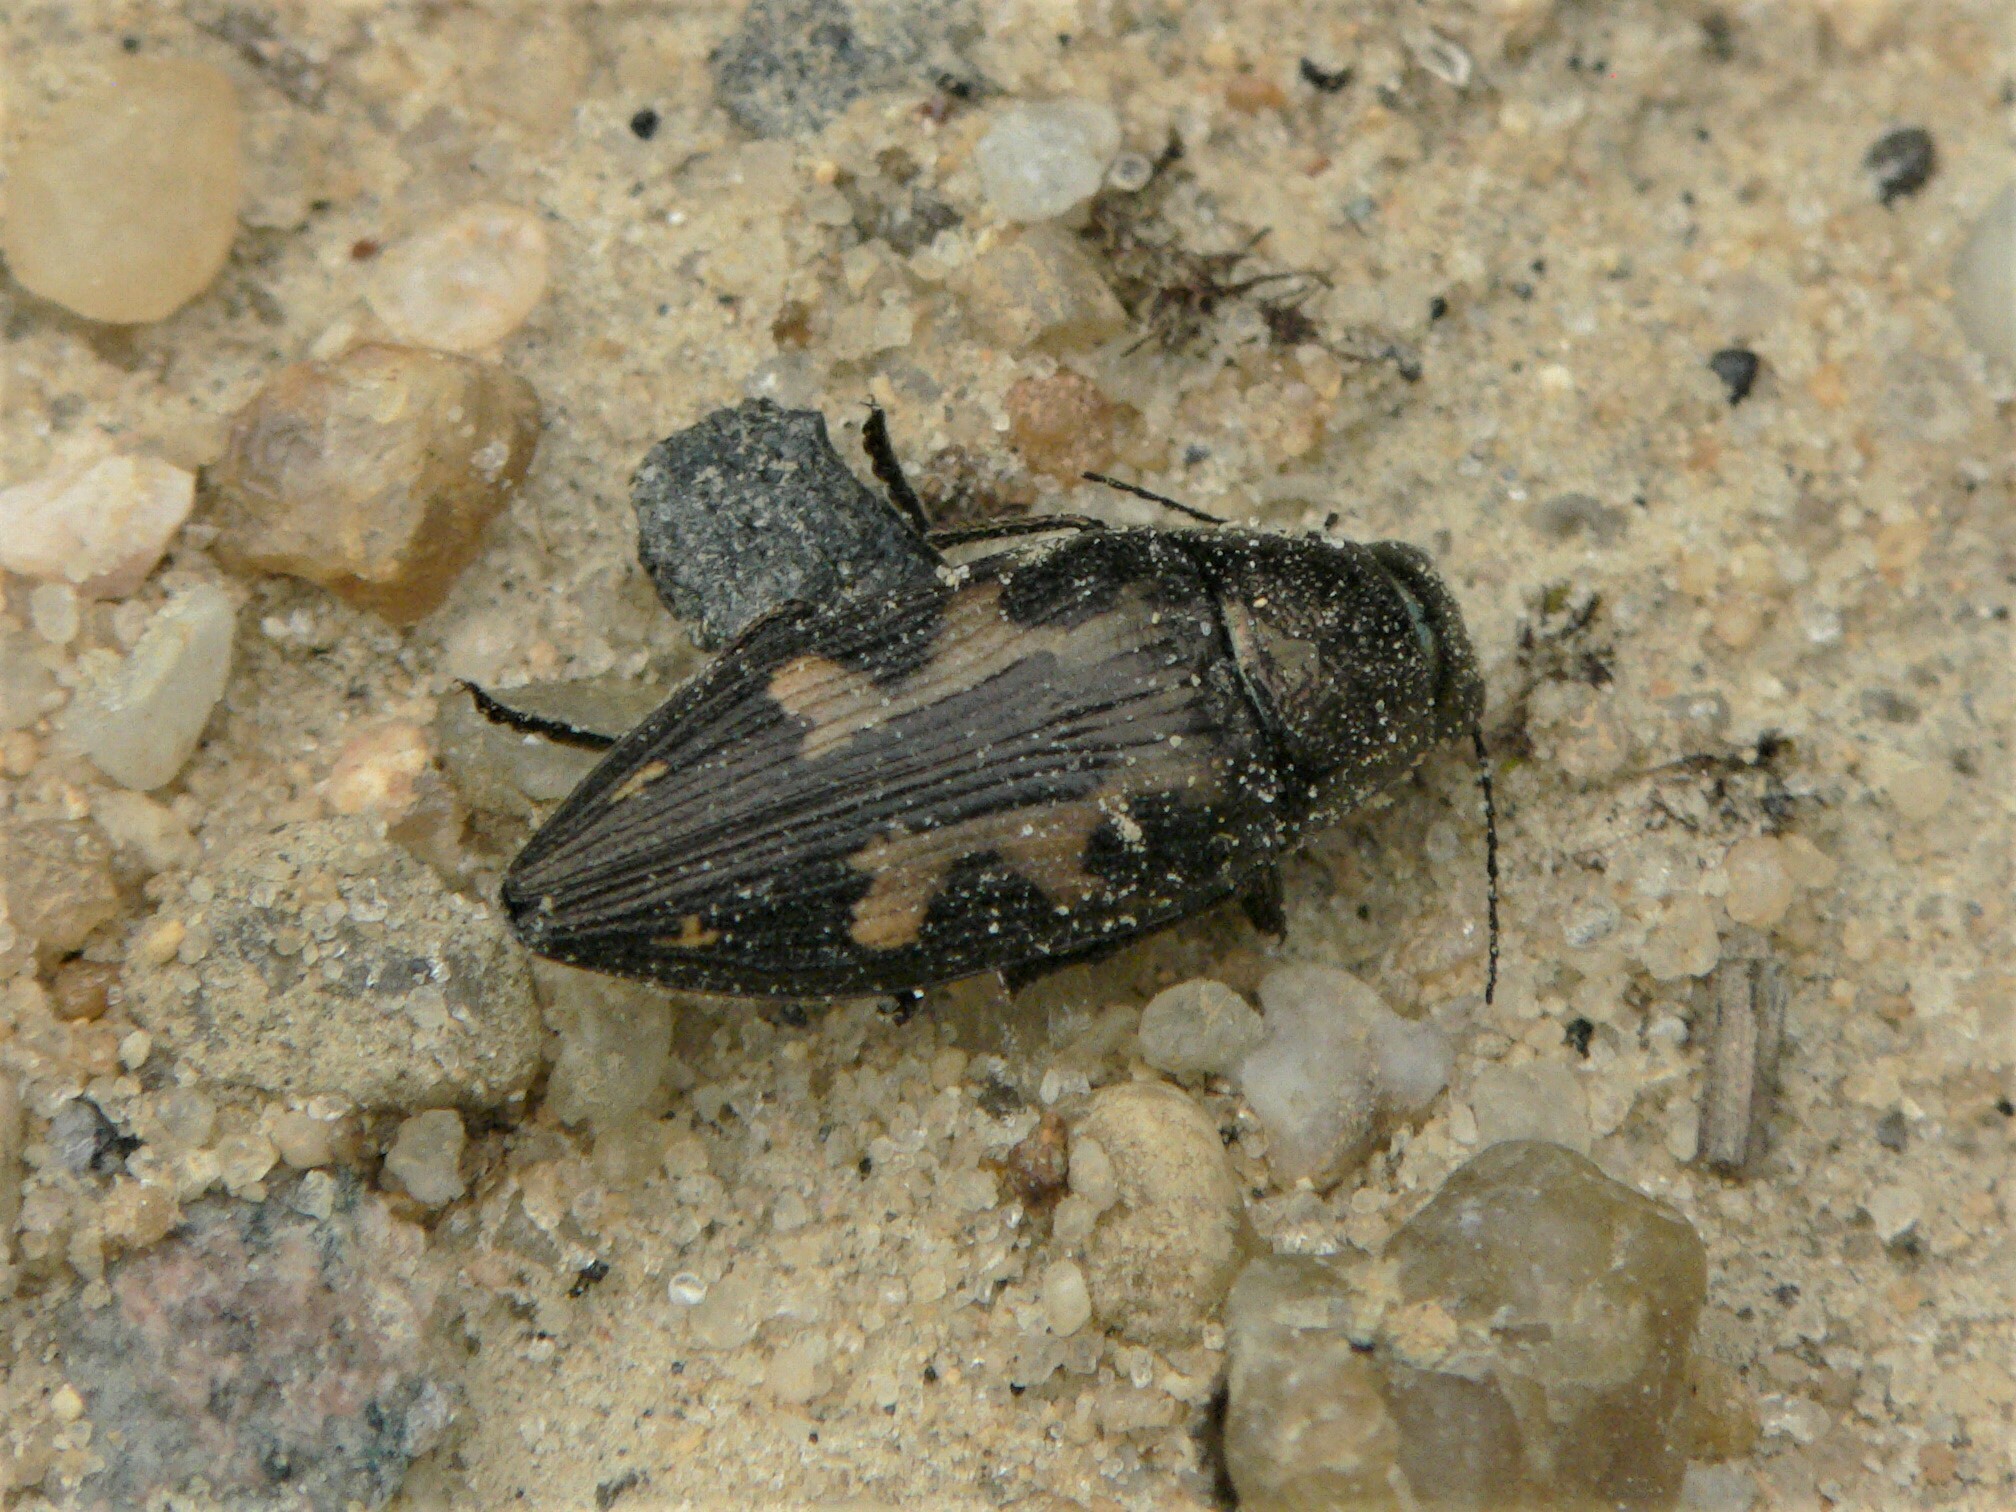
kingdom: Animalia
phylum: Arthropoda
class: Insecta
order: Coleoptera
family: Buprestidae
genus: Buprestis
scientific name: Buprestis maculipennis
